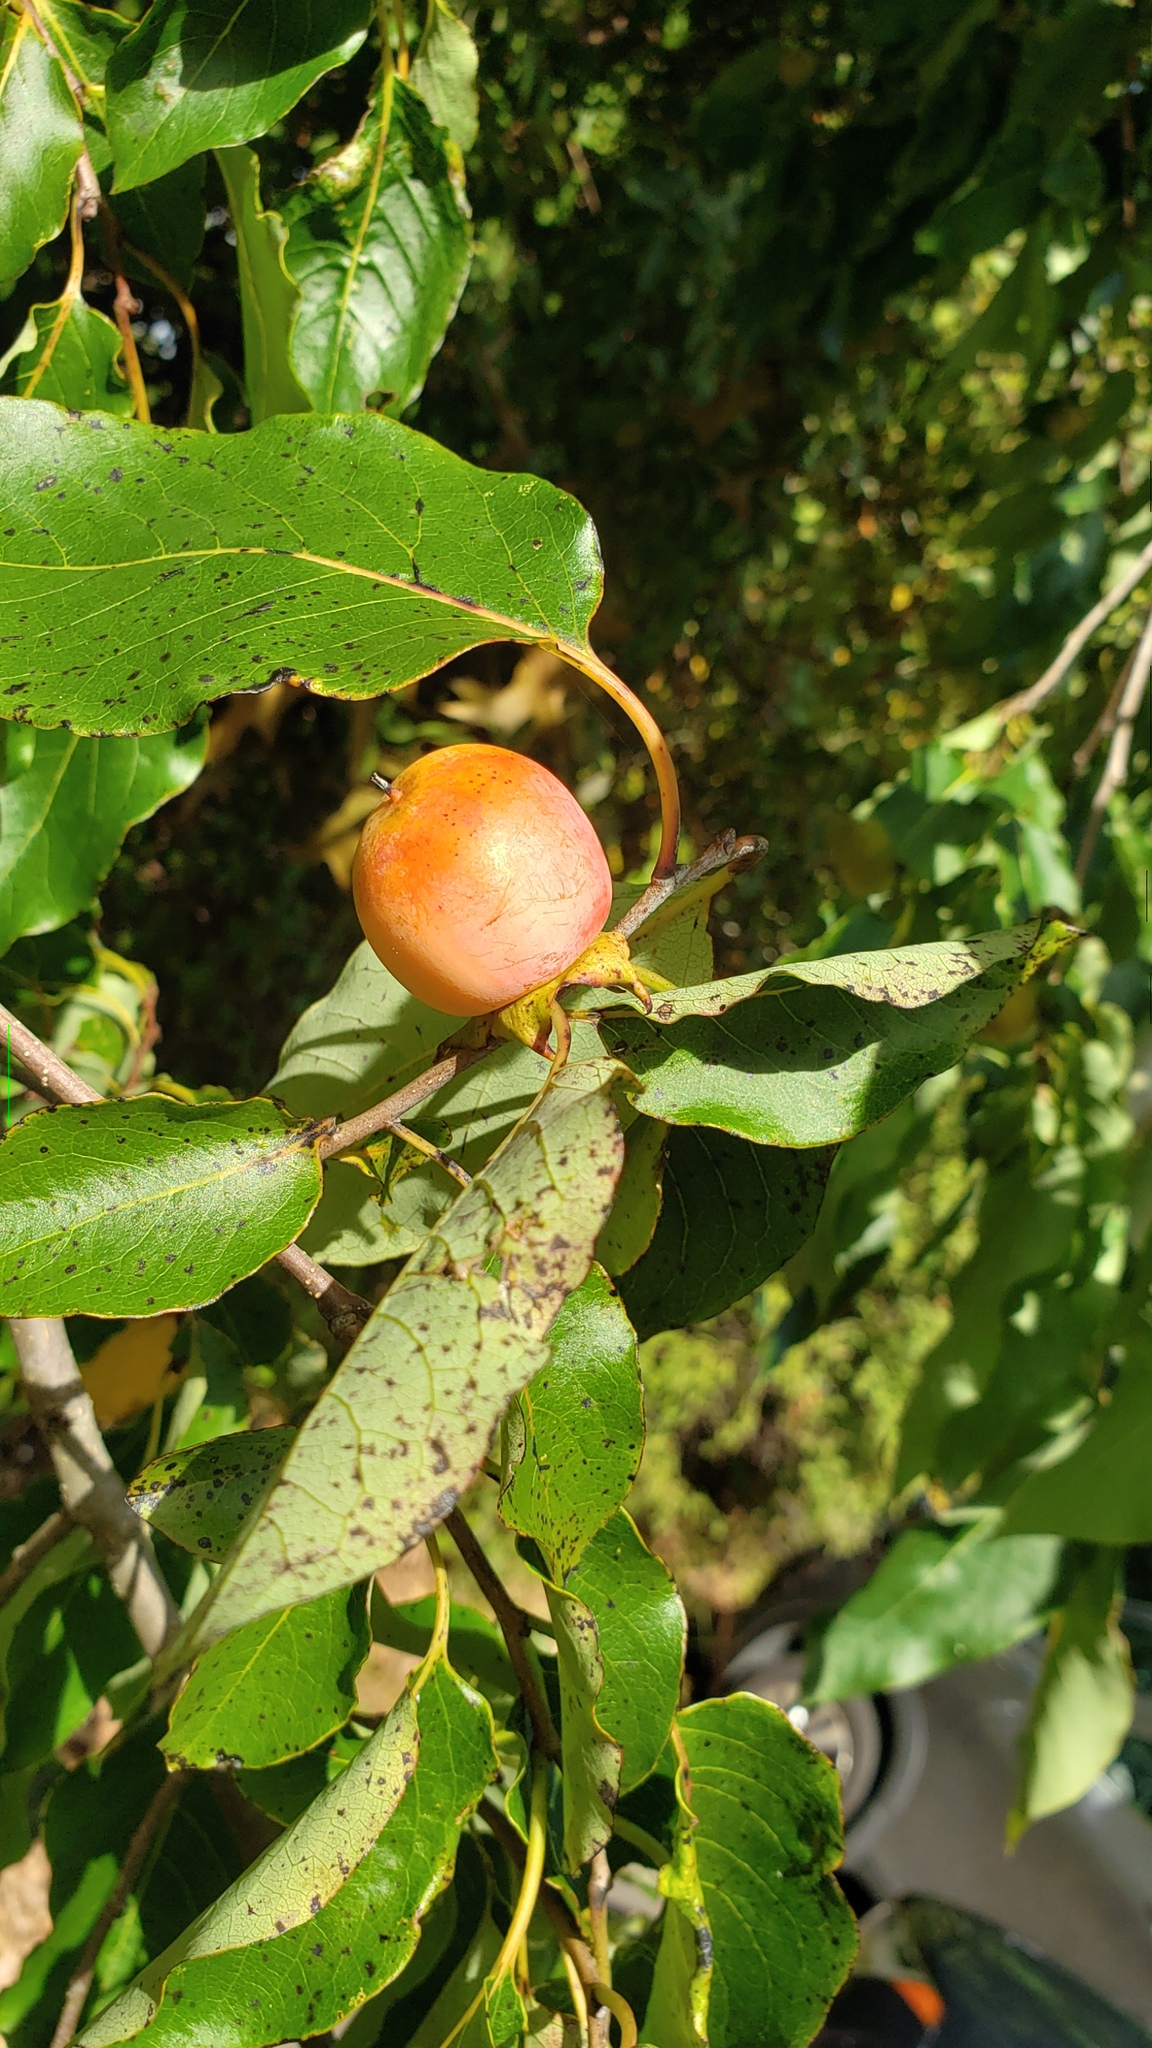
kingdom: Plantae
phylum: Tracheophyta
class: Magnoliopsida
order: Ericales
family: Ebenaceae
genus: Diospyros
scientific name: Diospyros virginiana
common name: Persimmon
